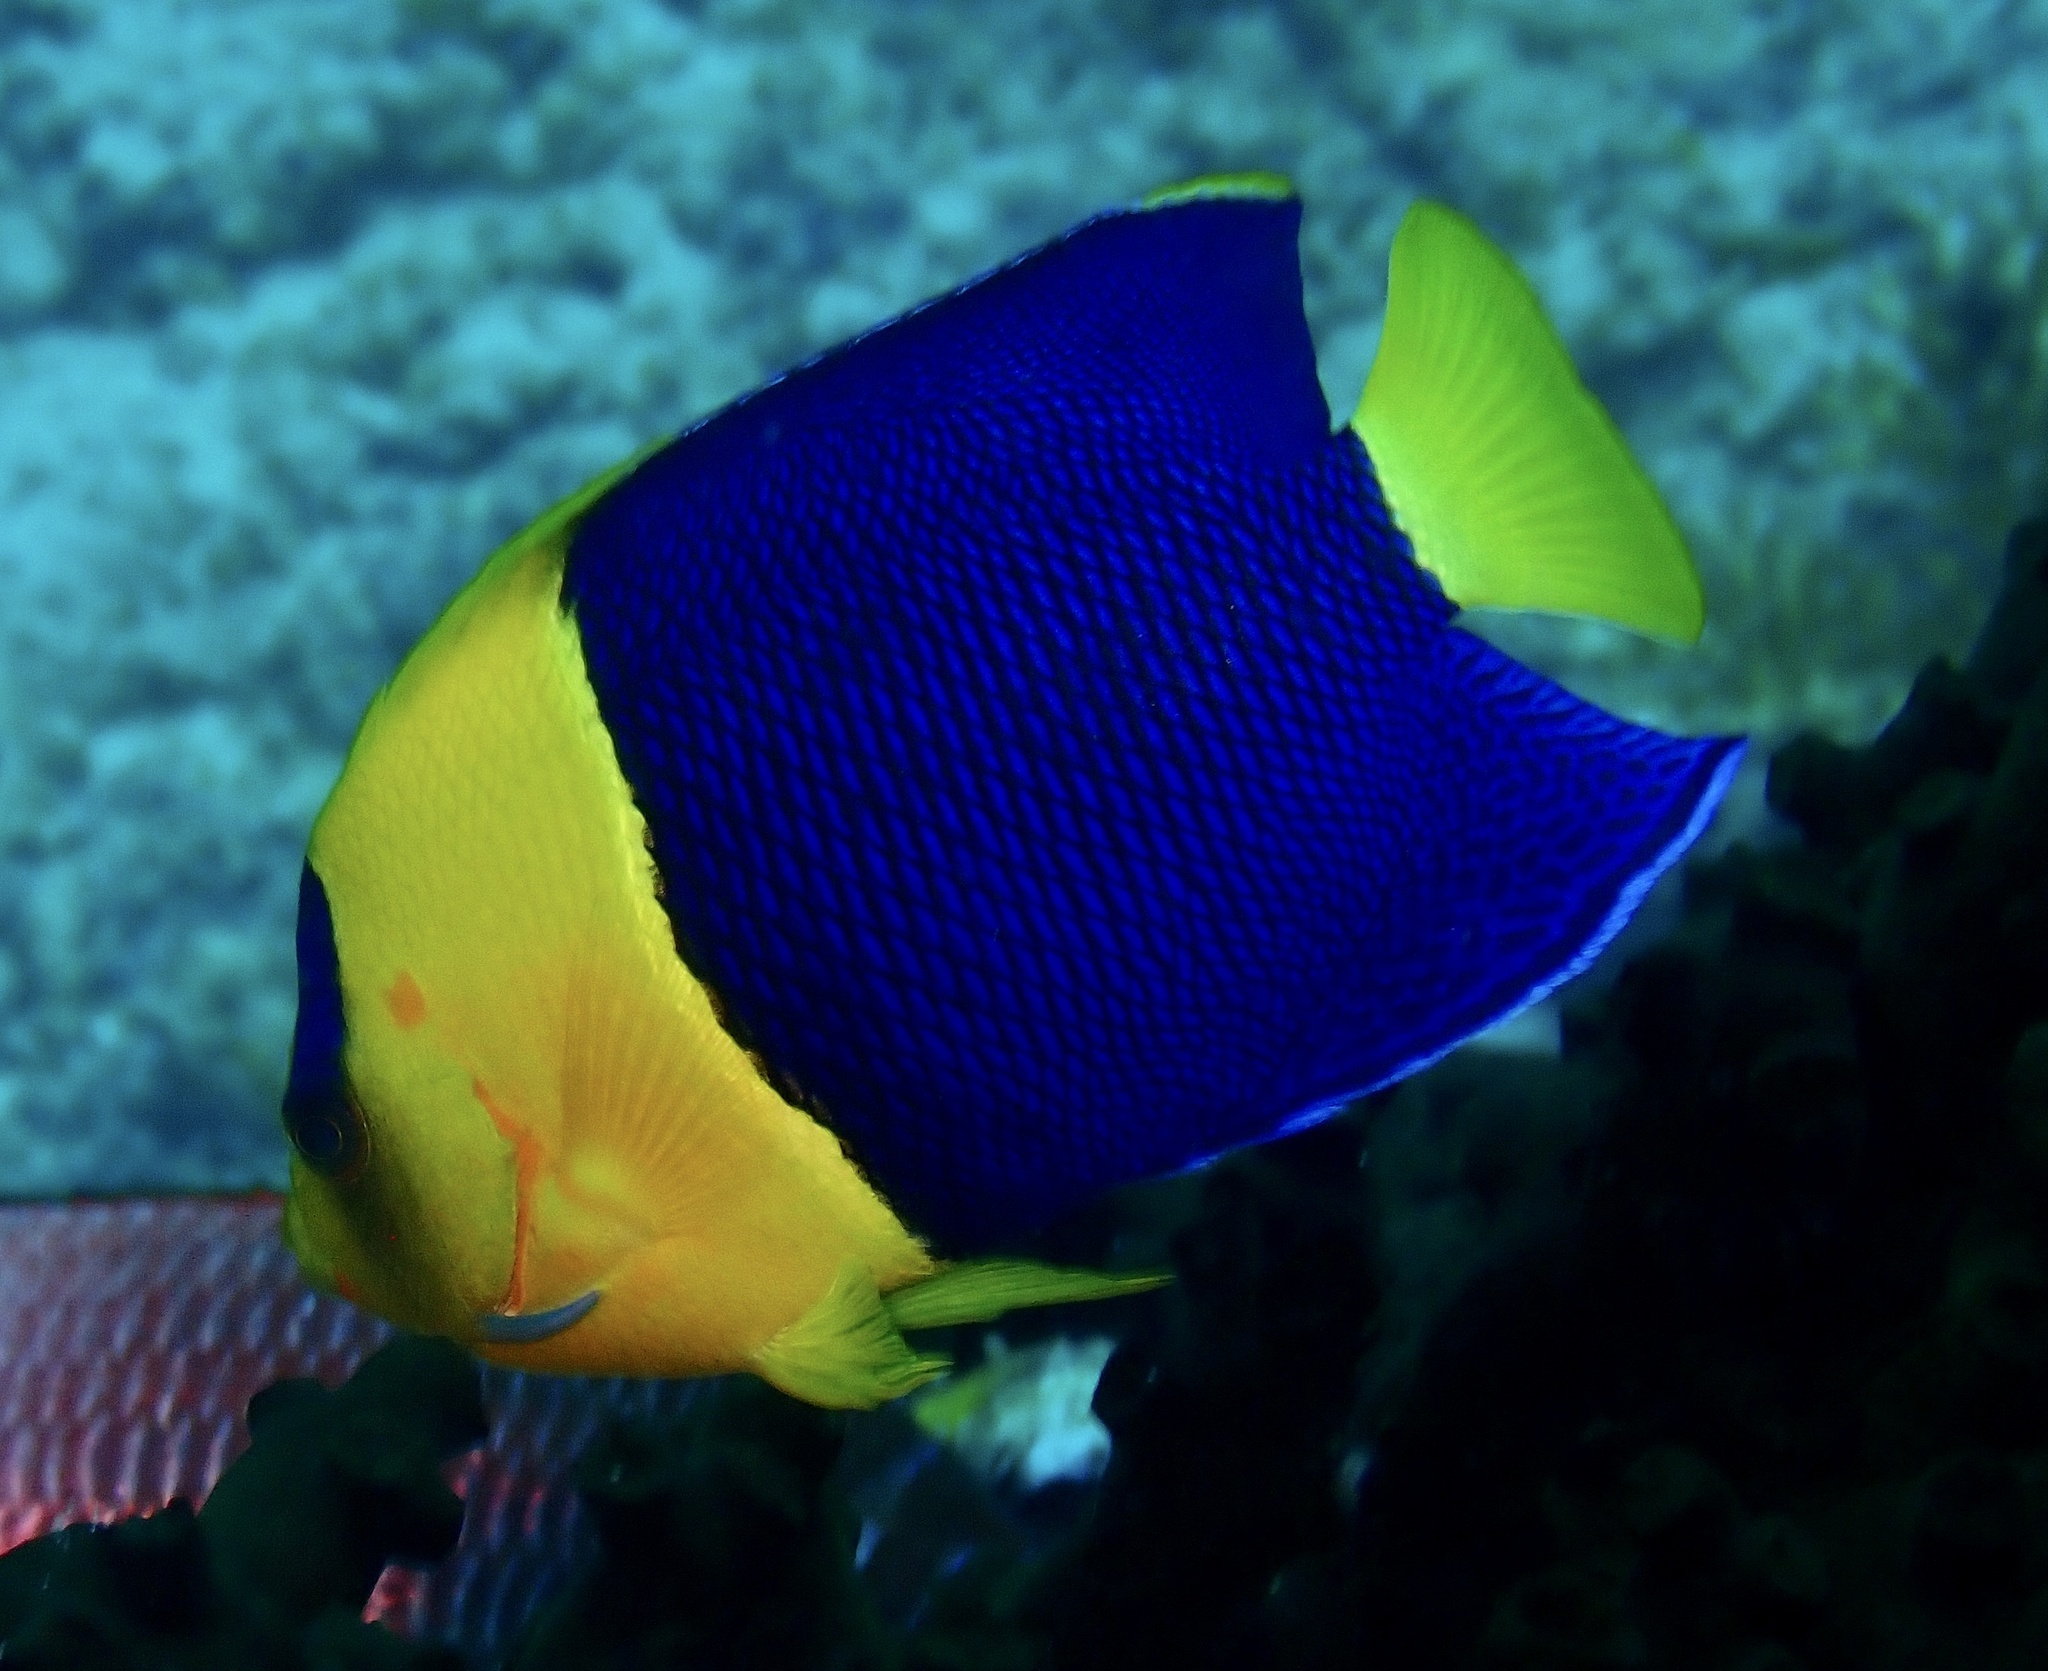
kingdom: Animalia
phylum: Chordata
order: Perciformes
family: Pomacanthidae
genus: Centropyge
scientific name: Centropyge bicolor
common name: Bicolor angelfish
